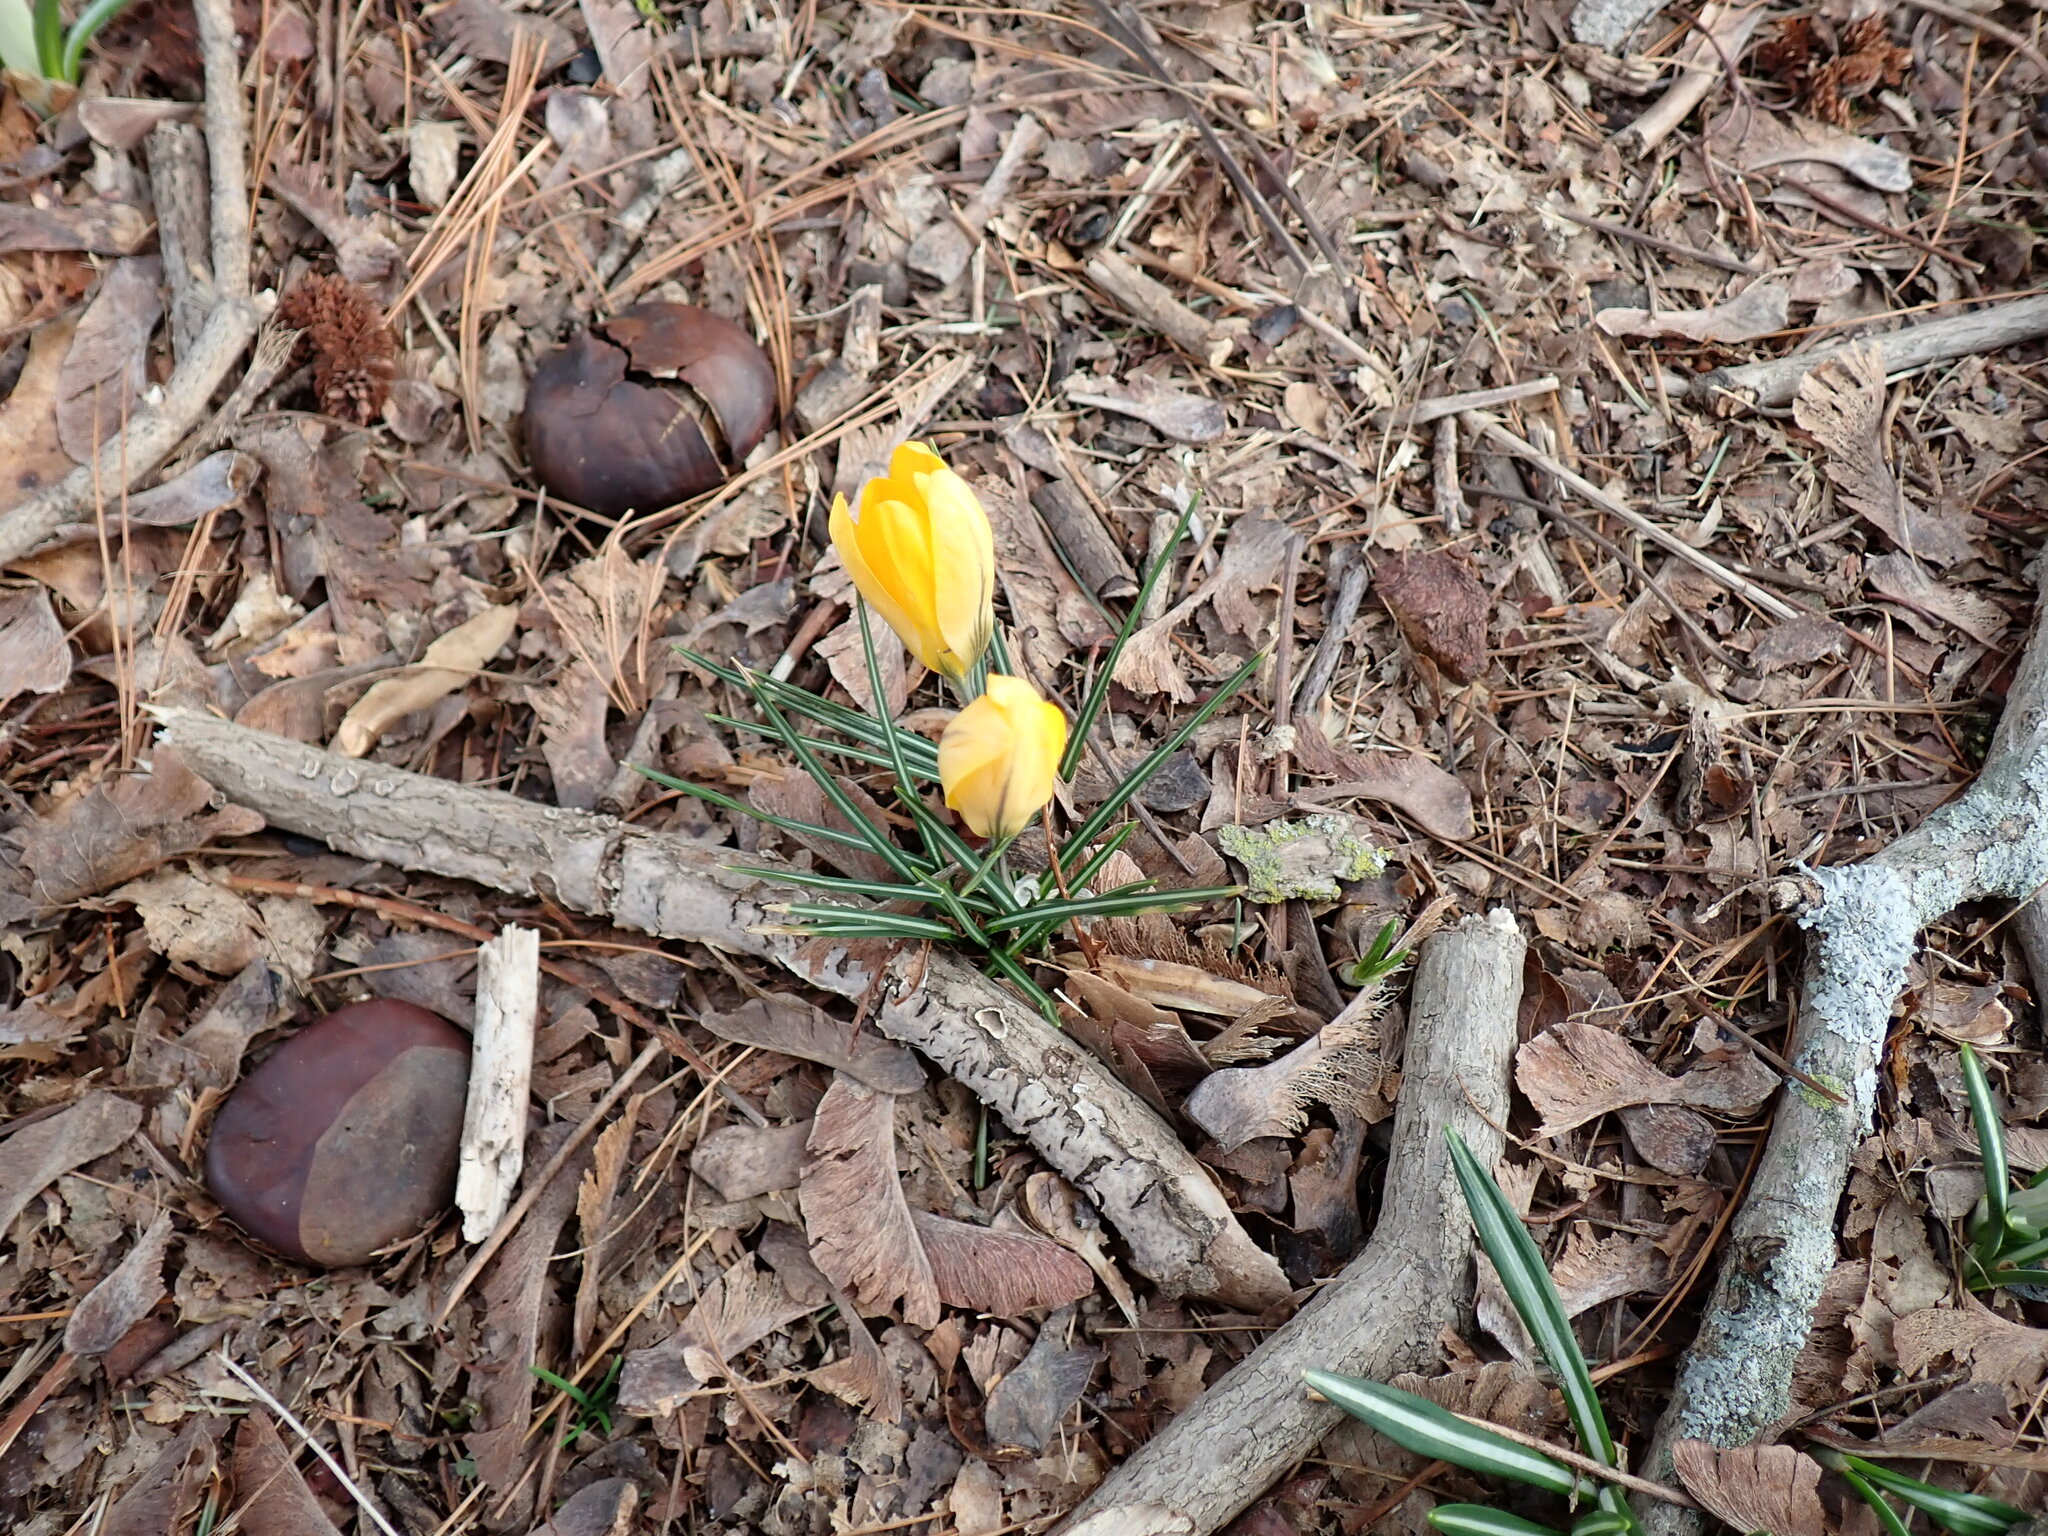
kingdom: Plantae
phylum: Tracheophyta
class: Liliopsida
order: Asparagales
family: Iridaceae
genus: Crocus
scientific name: Crocus chrysanthus
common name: Golden crocus
